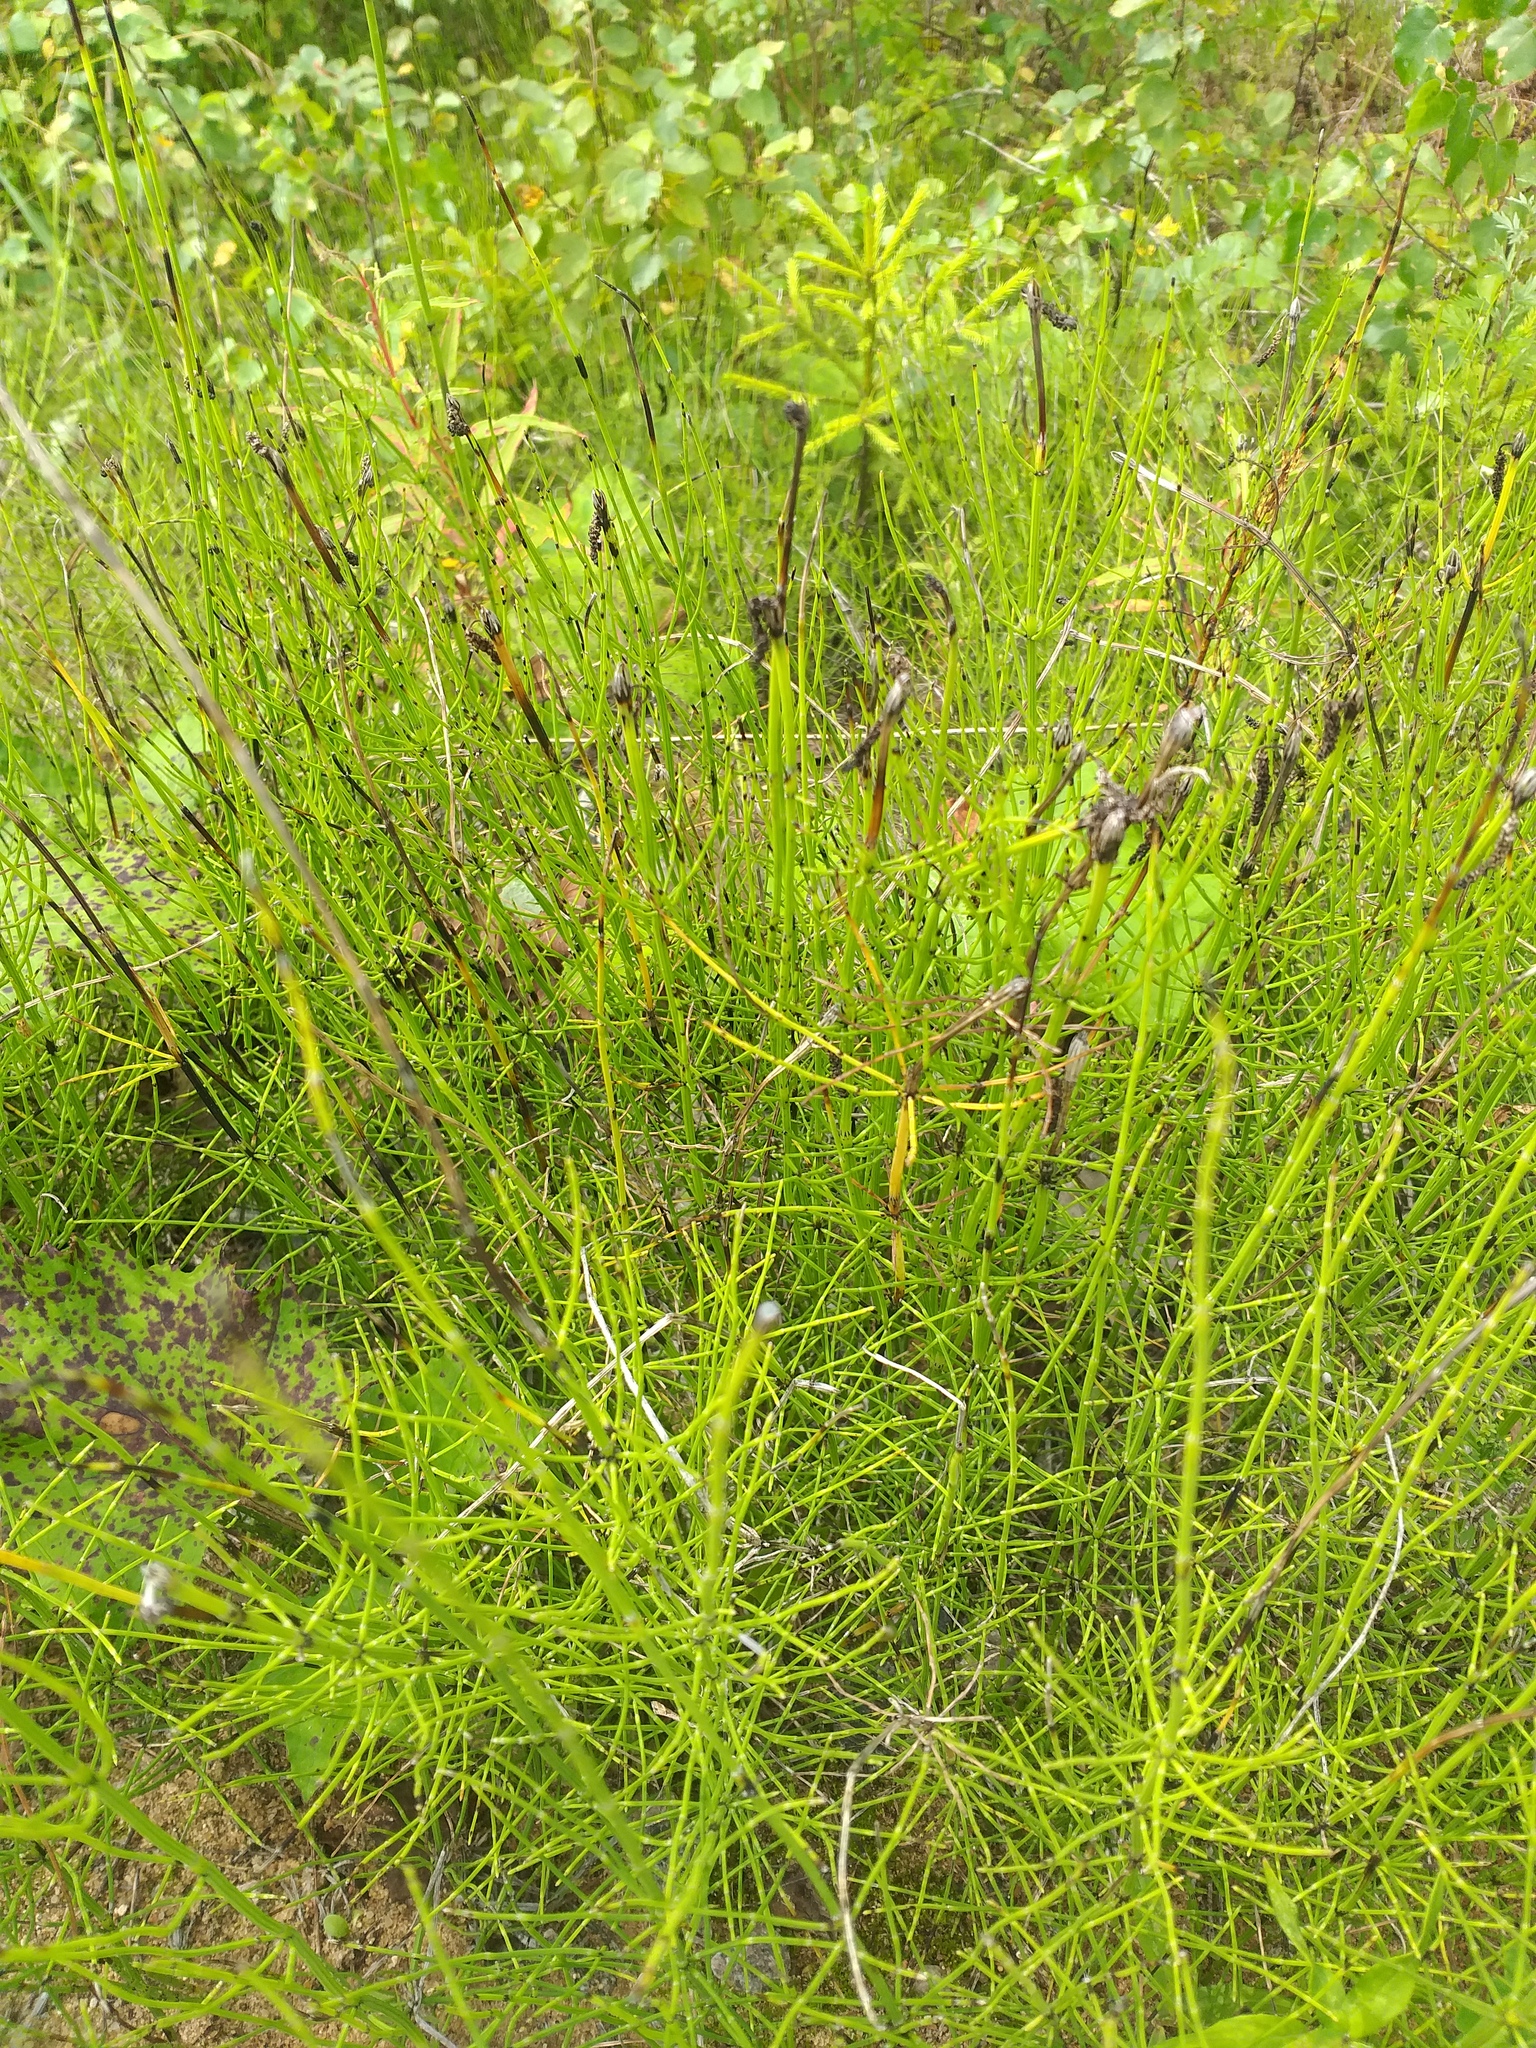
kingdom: Plantae
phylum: Tracheophyta
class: Polypodiopsida
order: Equisetales
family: Equisetaceae
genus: Equisetum
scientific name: Equisetum palustre
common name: Marsh horsetail
